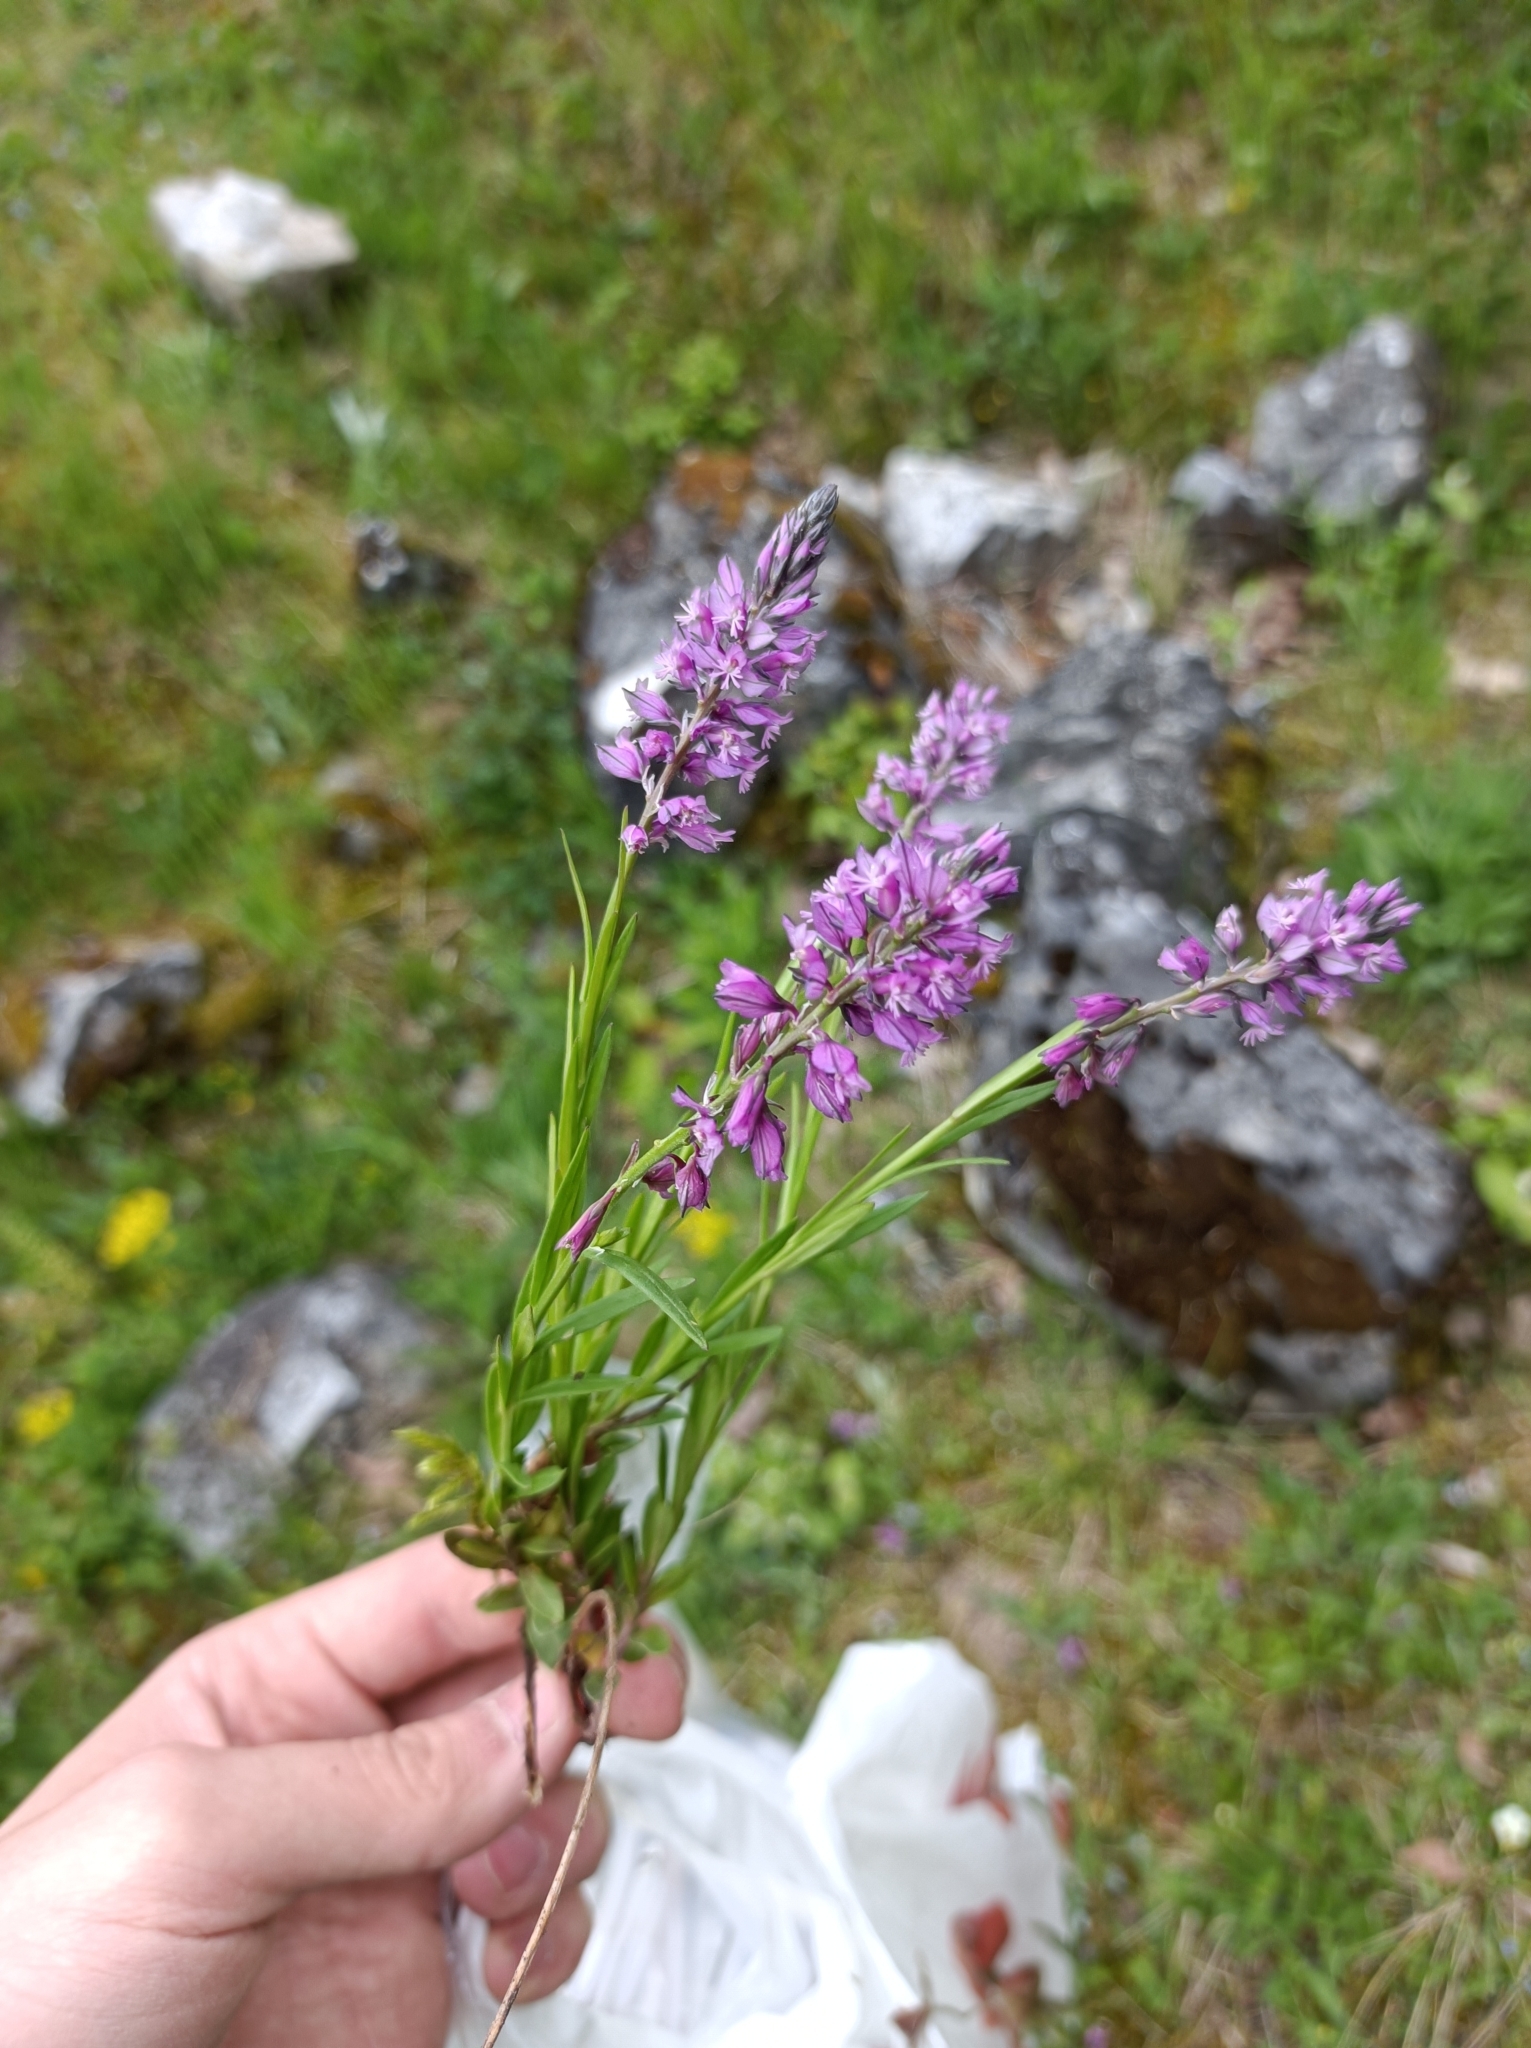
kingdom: Plantae
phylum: Tracheophyta
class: Magnoliopsida
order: Fabales
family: Polygalaceae
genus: Polygala
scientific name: Polygala comosa
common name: Tufted milkwort
